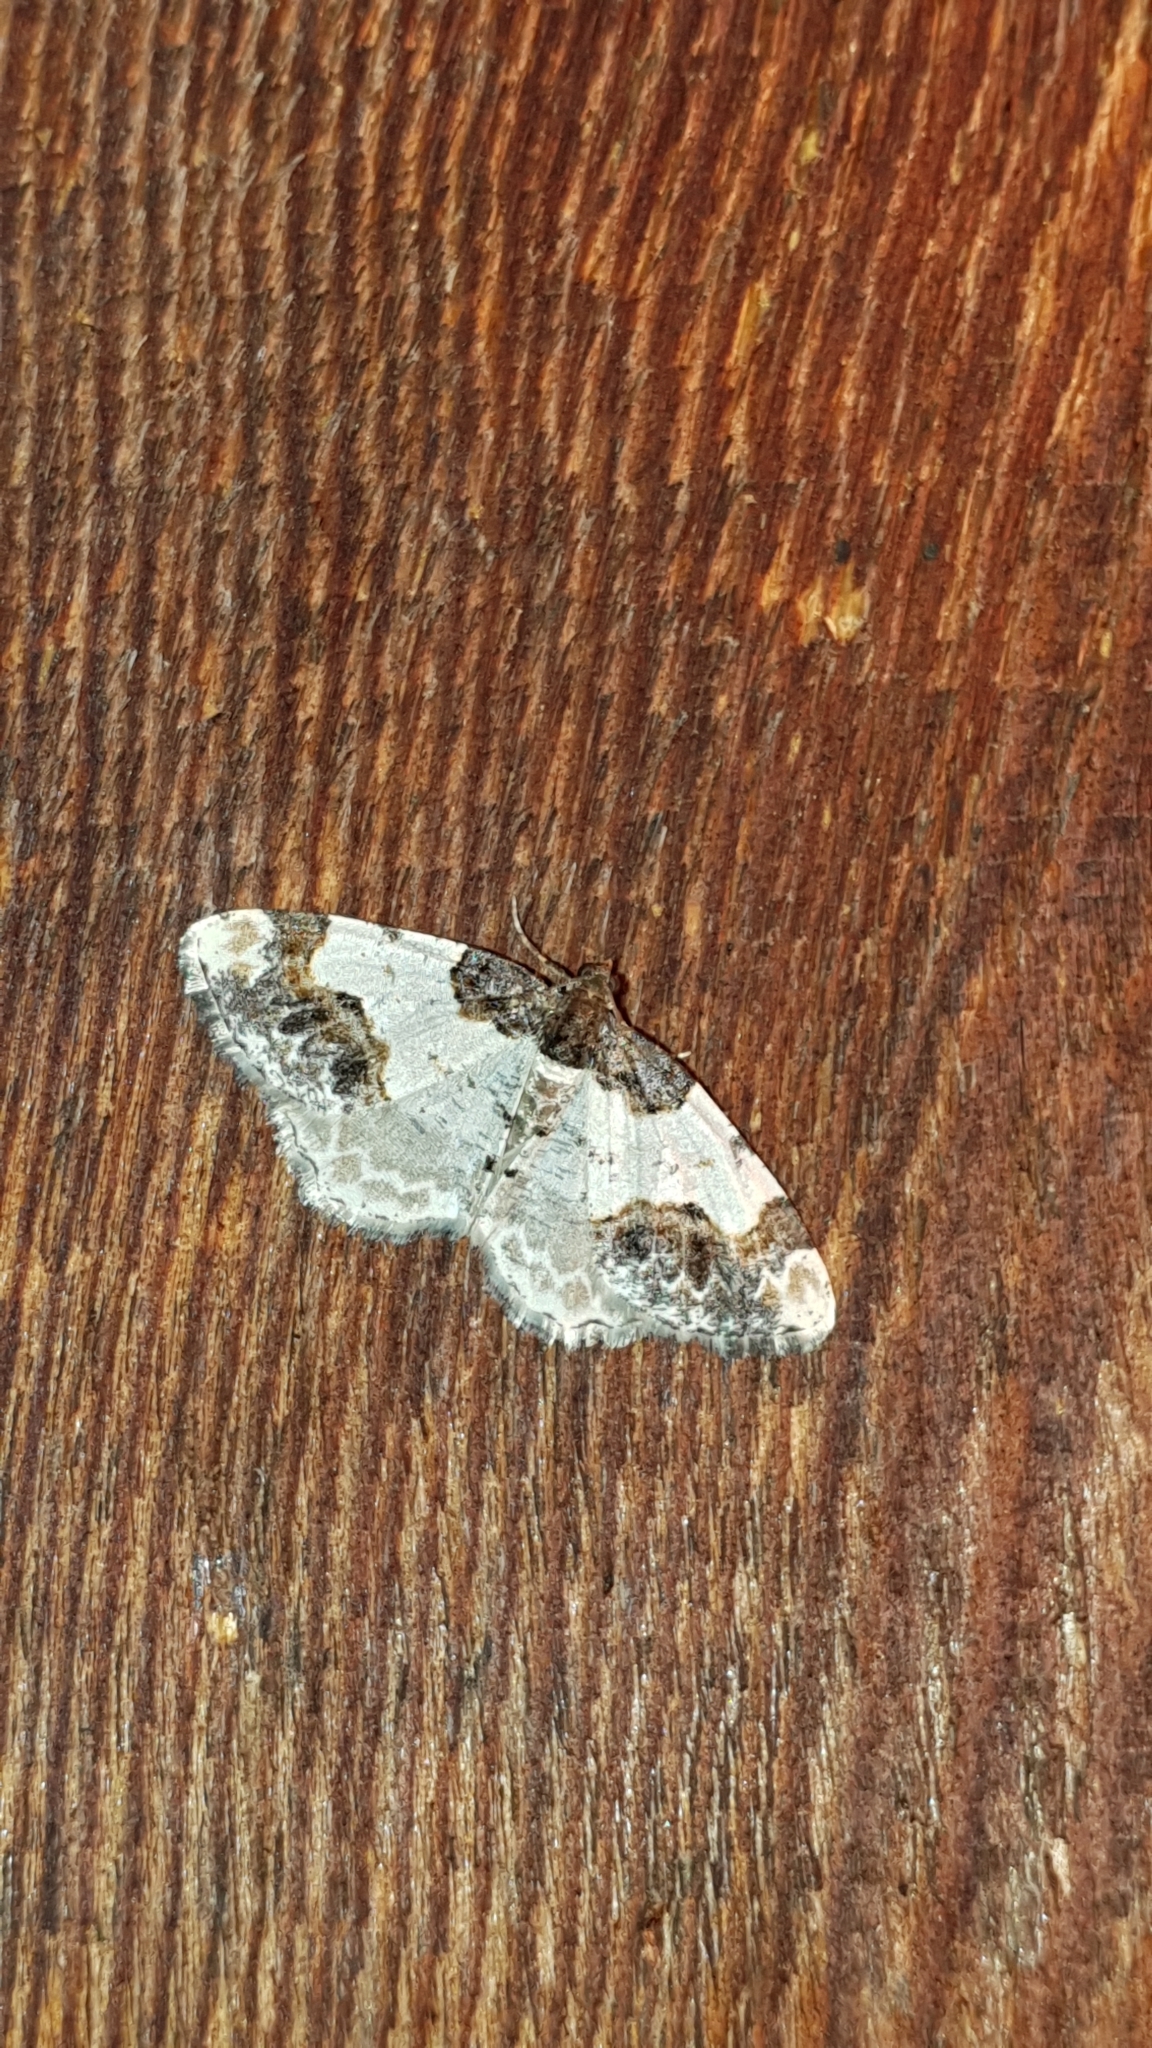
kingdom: Animalia
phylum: Arthropoda
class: Insecta
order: Lepidoptera
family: Geometridae
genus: Ligdia
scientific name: Ligdia adustata
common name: Scorched carpet
